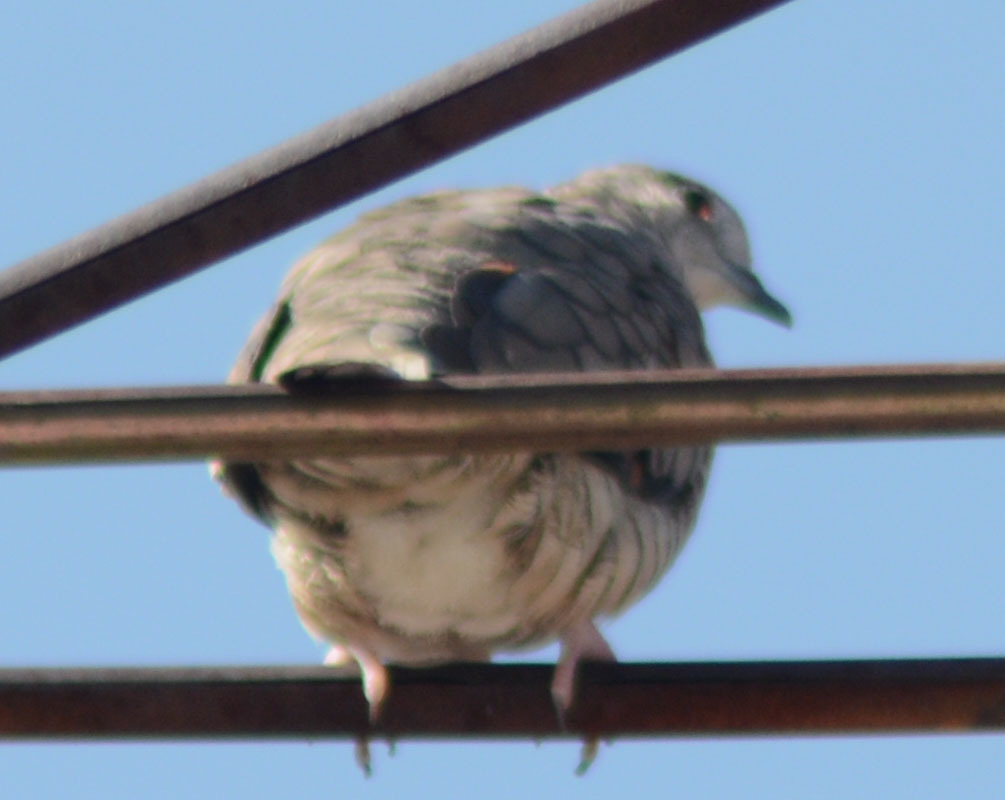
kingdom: Animalia
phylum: Chordata
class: Aves
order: Columbiformes
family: Columbidae
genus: Columbina
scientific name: Columbina inca
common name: Inca dove
